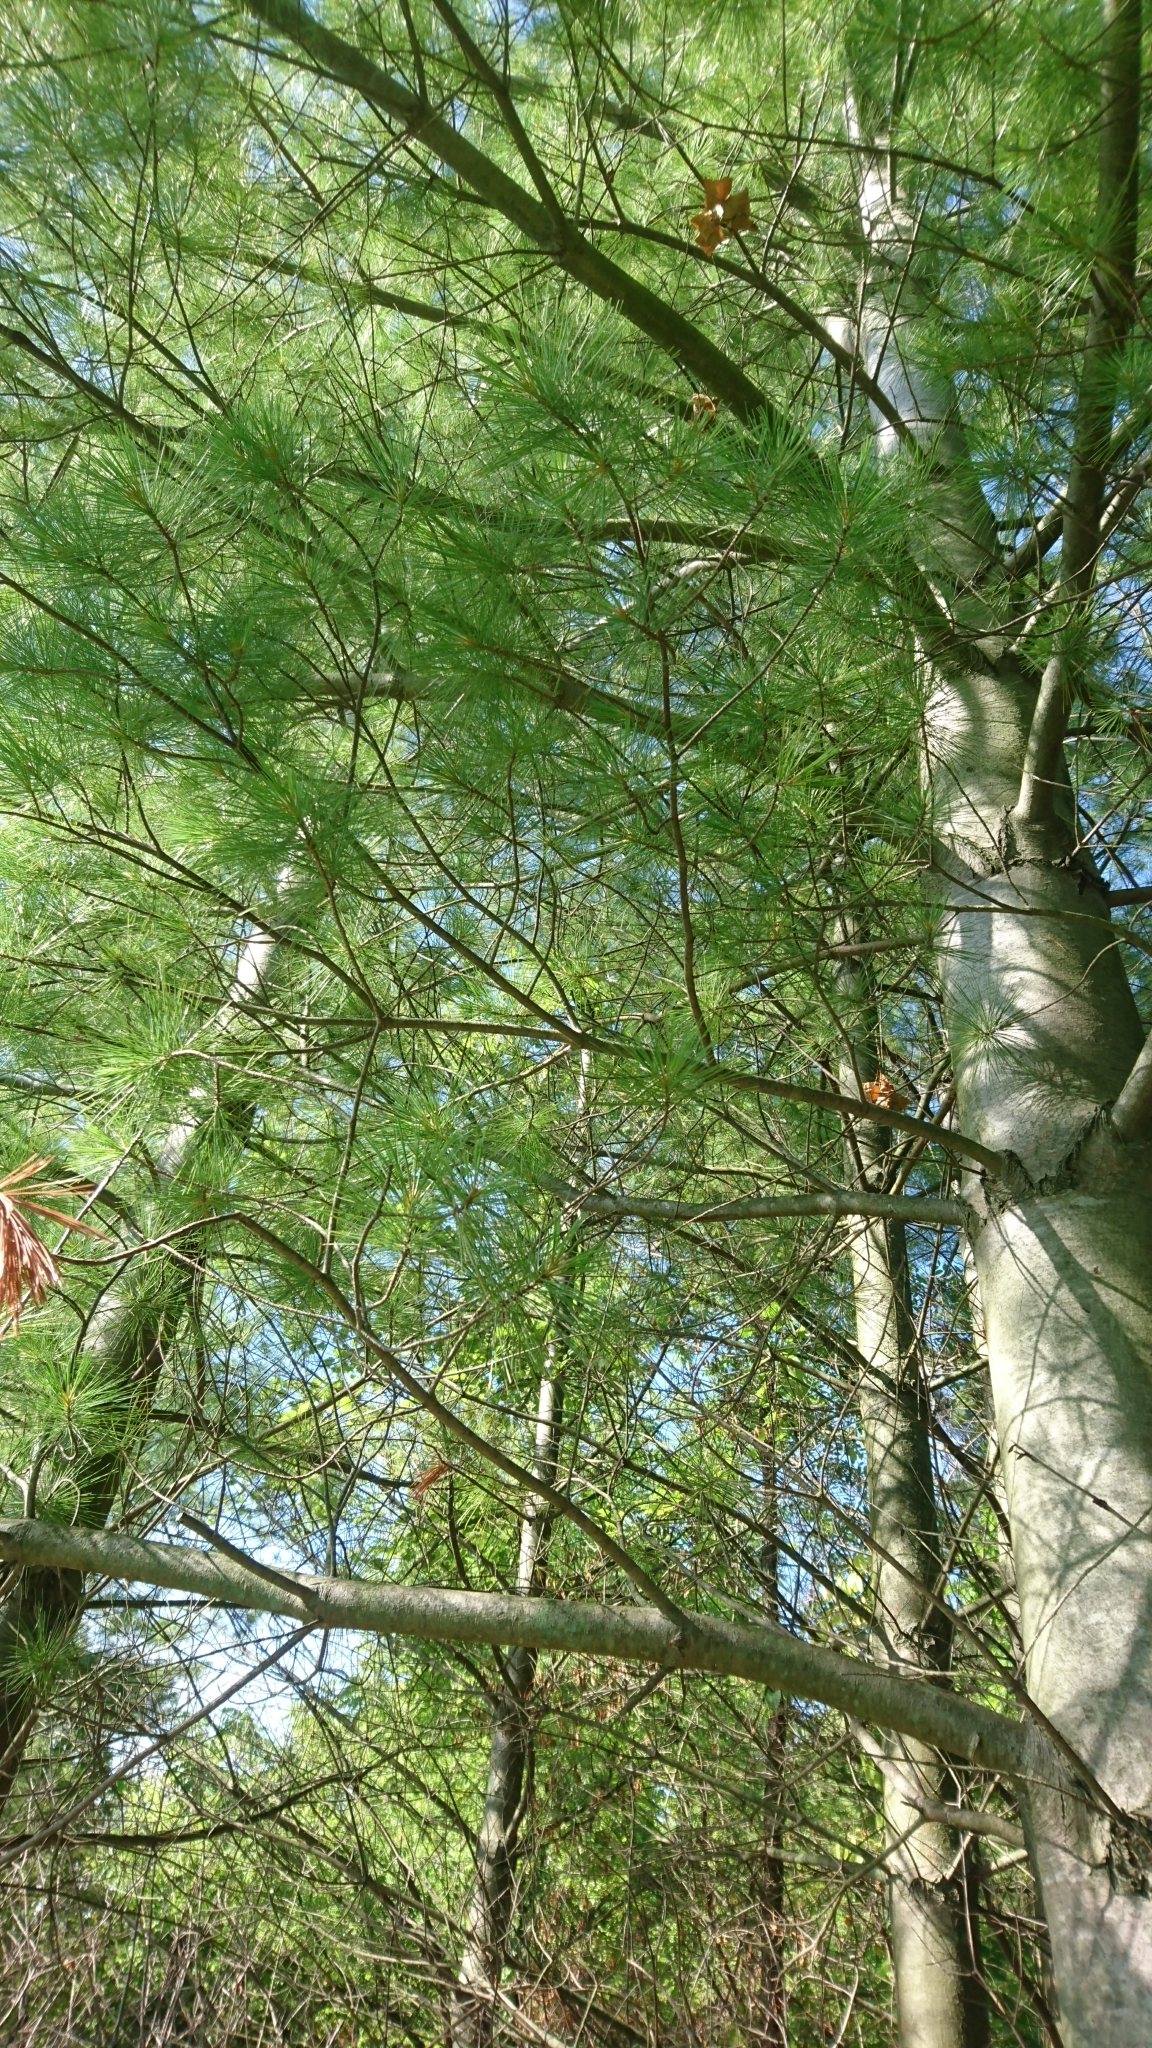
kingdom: Plantae
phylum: Tracheophyta
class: Pinopsida
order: Pinales
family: Pinaceae
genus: Pinus
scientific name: Pinus strobus
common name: Weymouth pine
